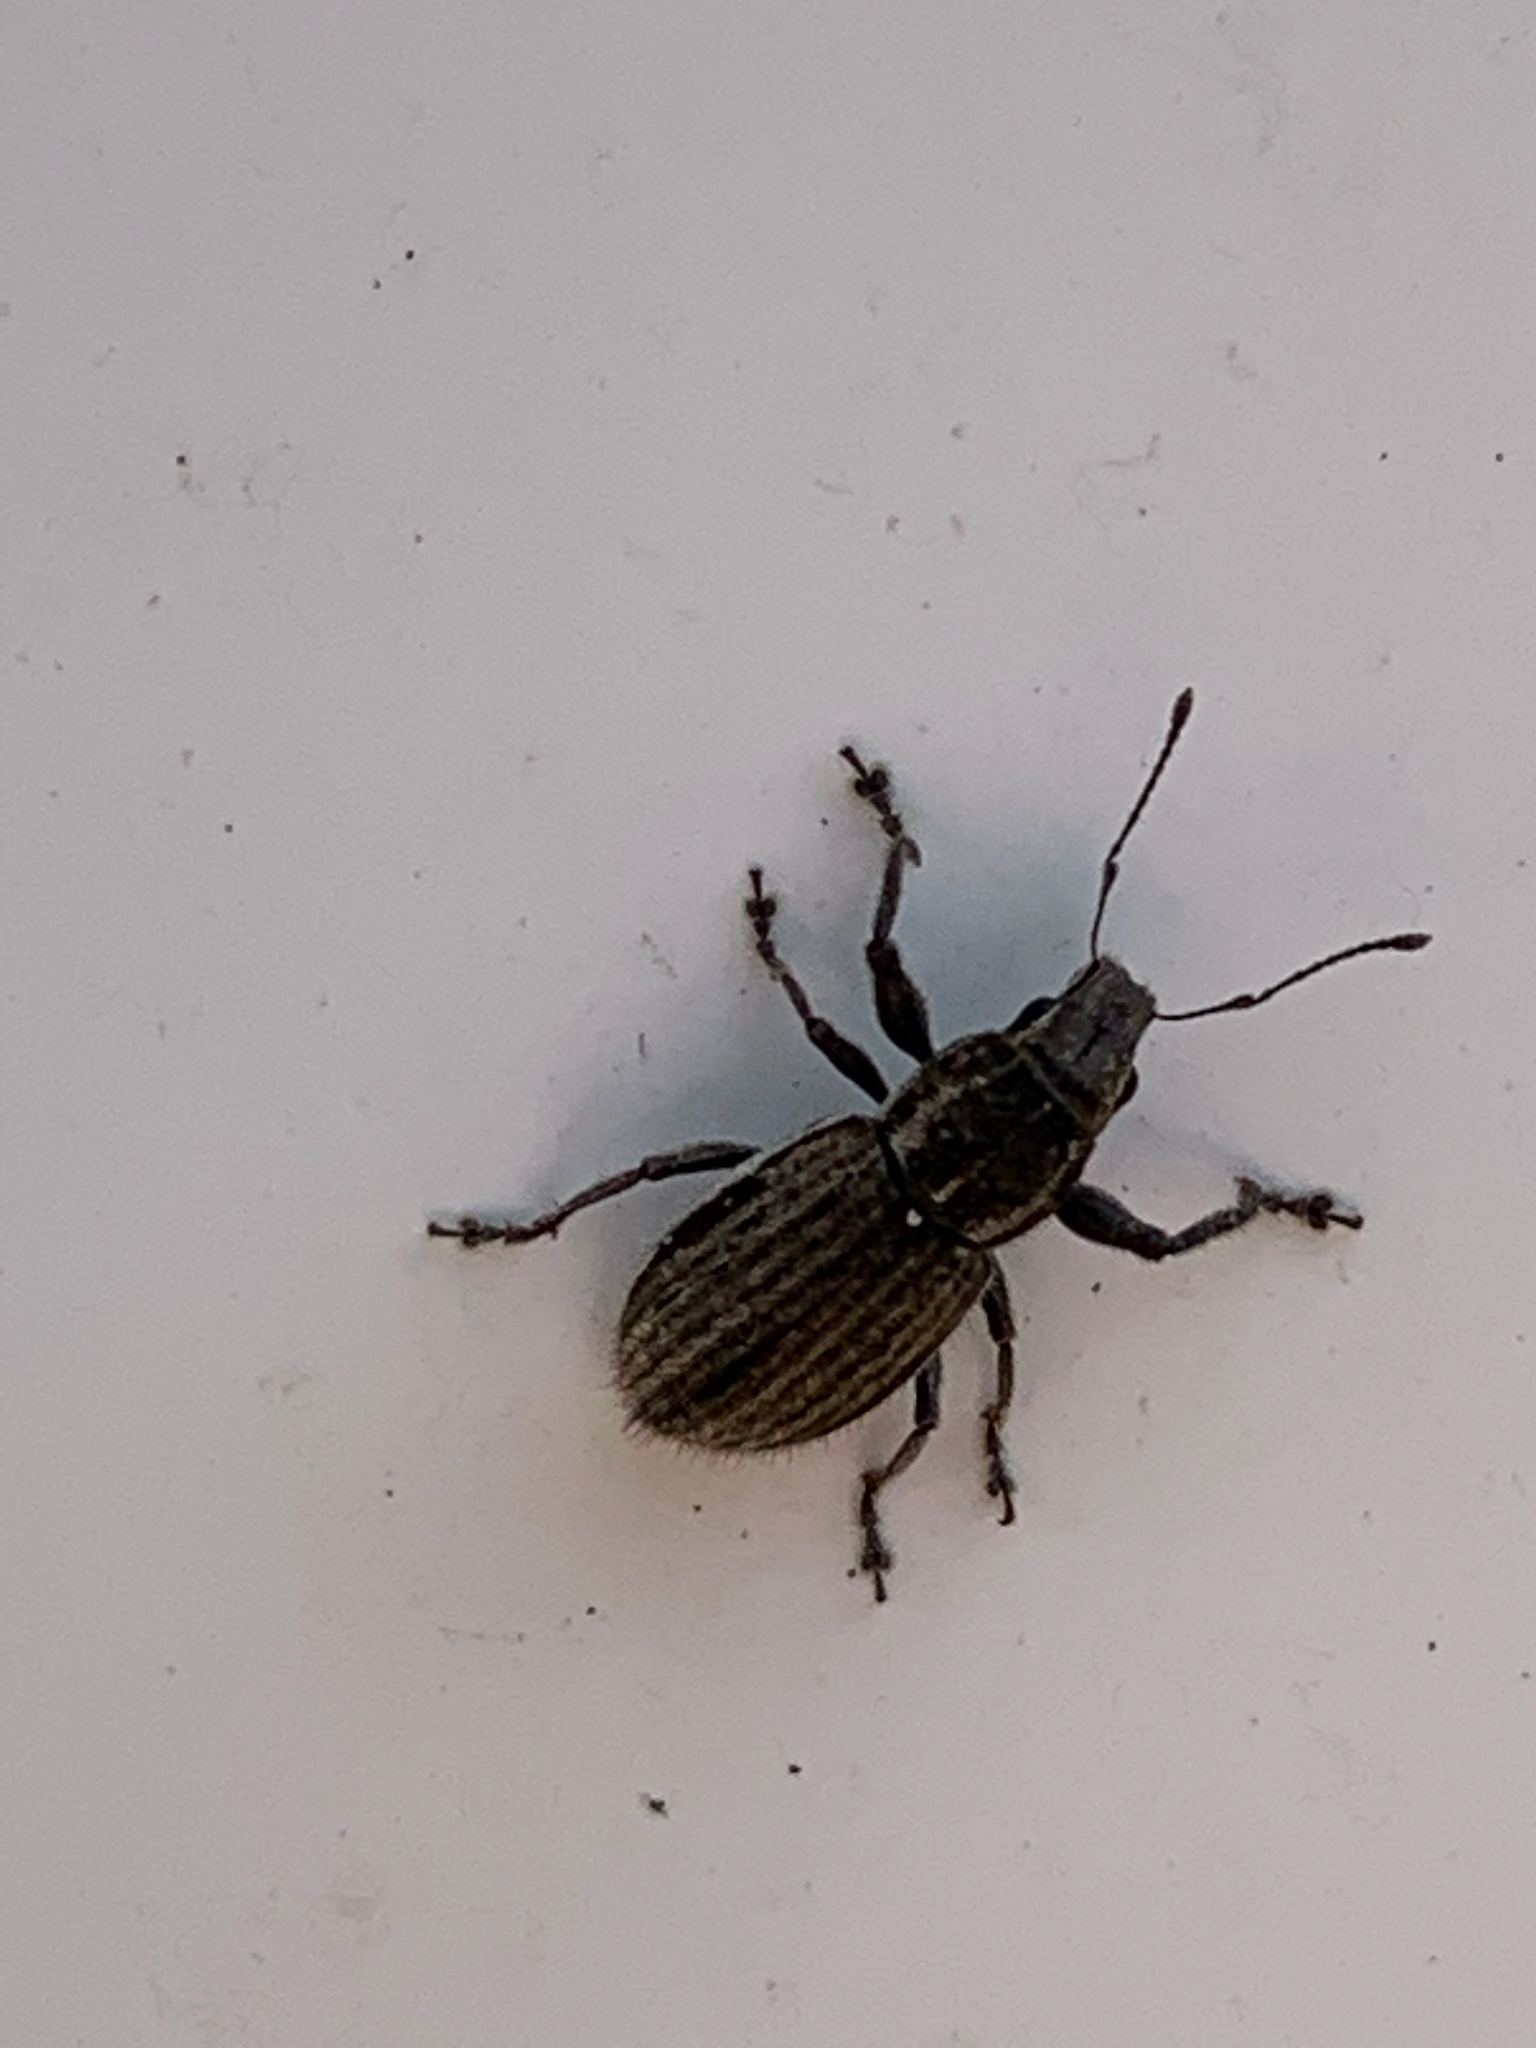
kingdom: Animalia
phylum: Arthropoda
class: Insecta
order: Coleoptera
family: Curculionidae
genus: Naupactus
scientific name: Naupactus leucoloma
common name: Whitefringed beetle
